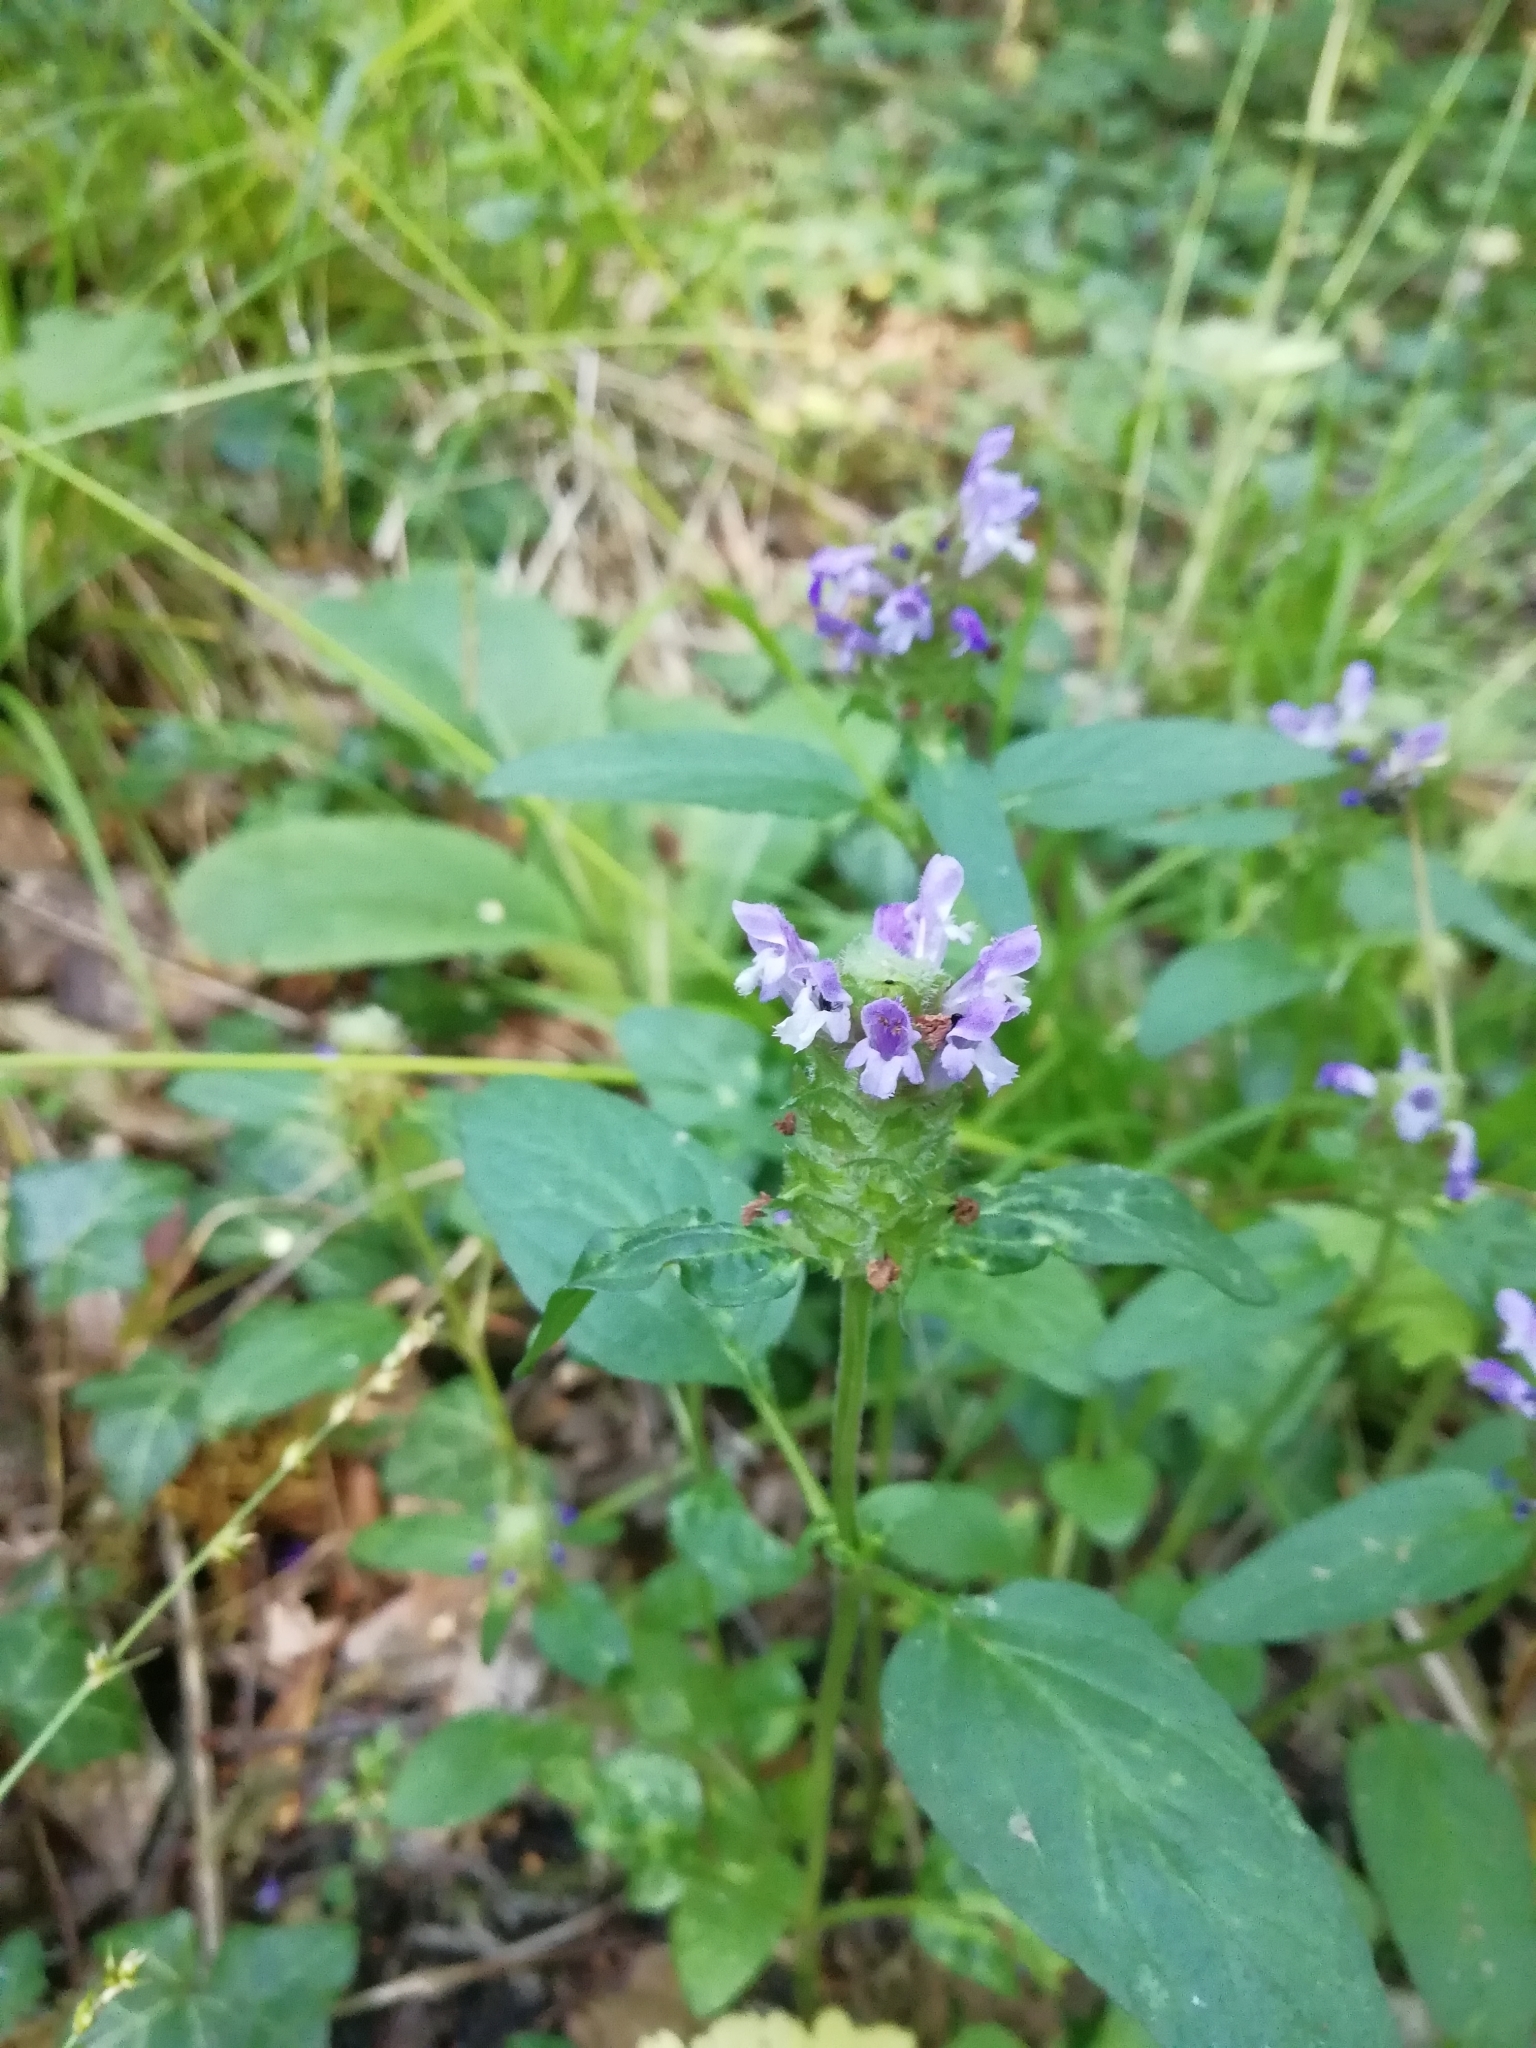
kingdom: Plantae
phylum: Tracheophyta
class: Magnoliopsida
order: Lamiales
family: Lamiaceae
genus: Prunella
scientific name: Prunella vulgaris
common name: Heal-all
